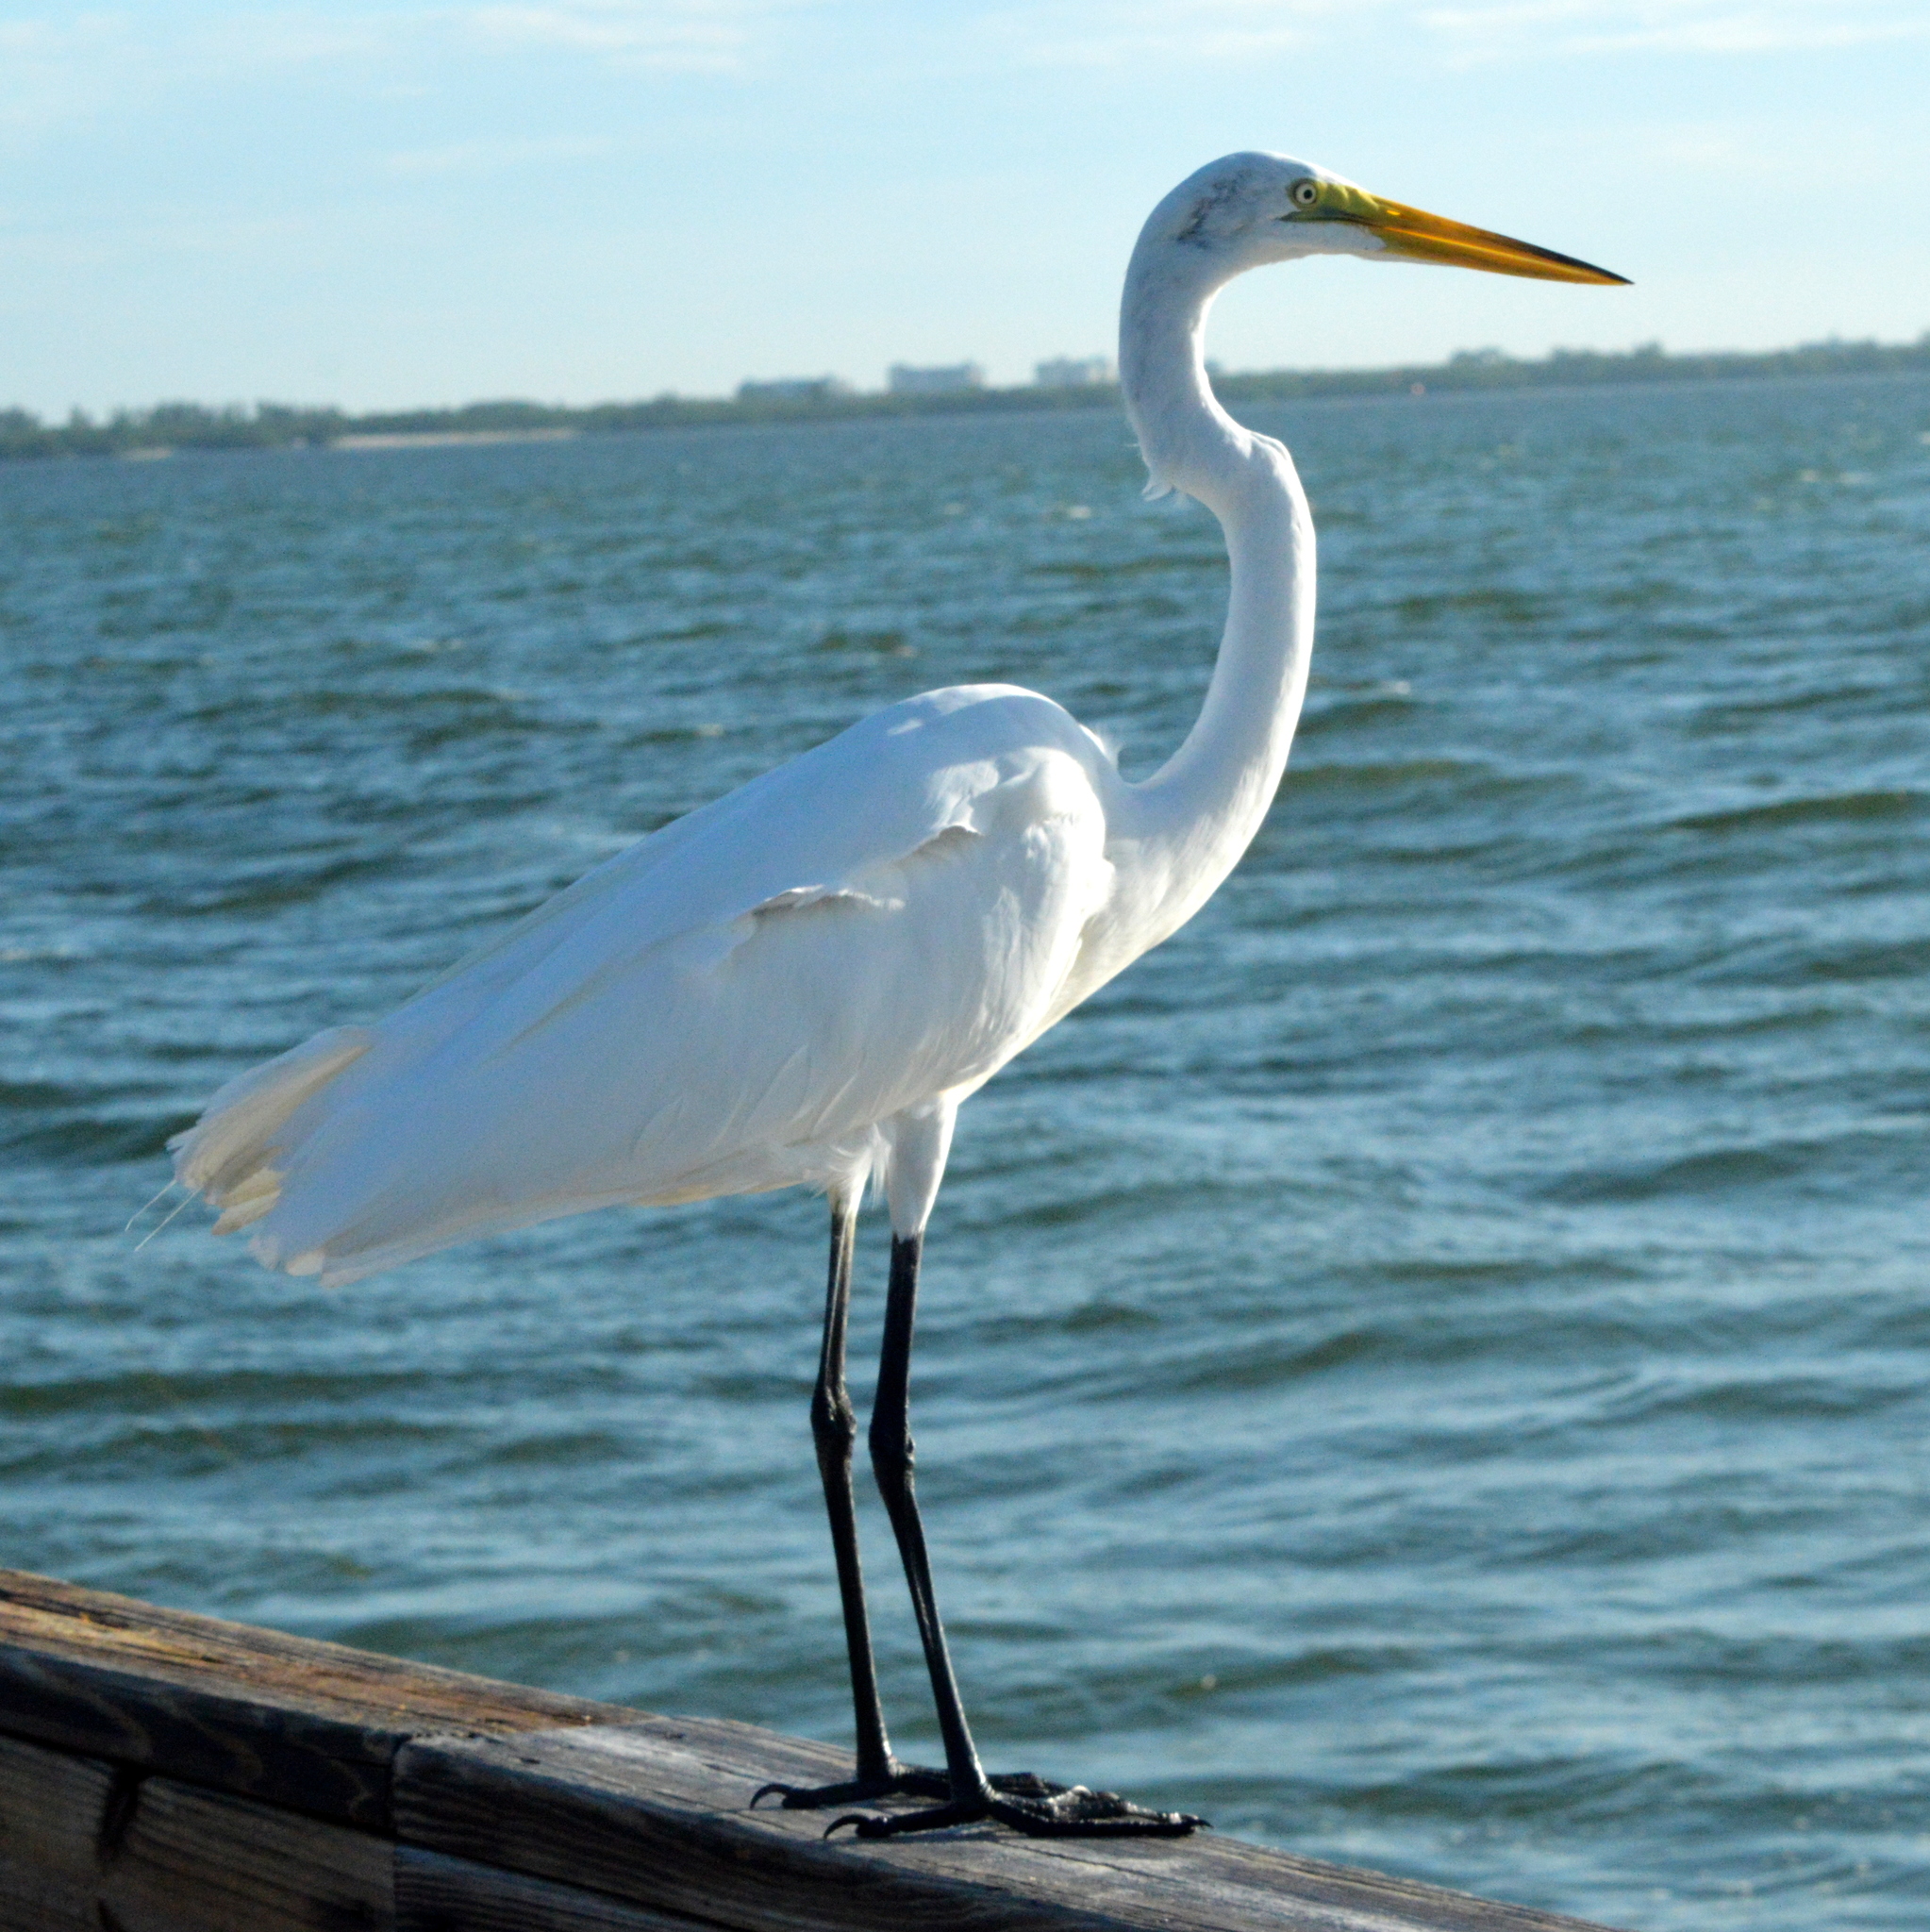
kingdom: Animalia
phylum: Chordata
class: Aves
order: Pelecaniformes
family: Ardeidae
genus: Ardea
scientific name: Ardea alba
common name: Great egret
